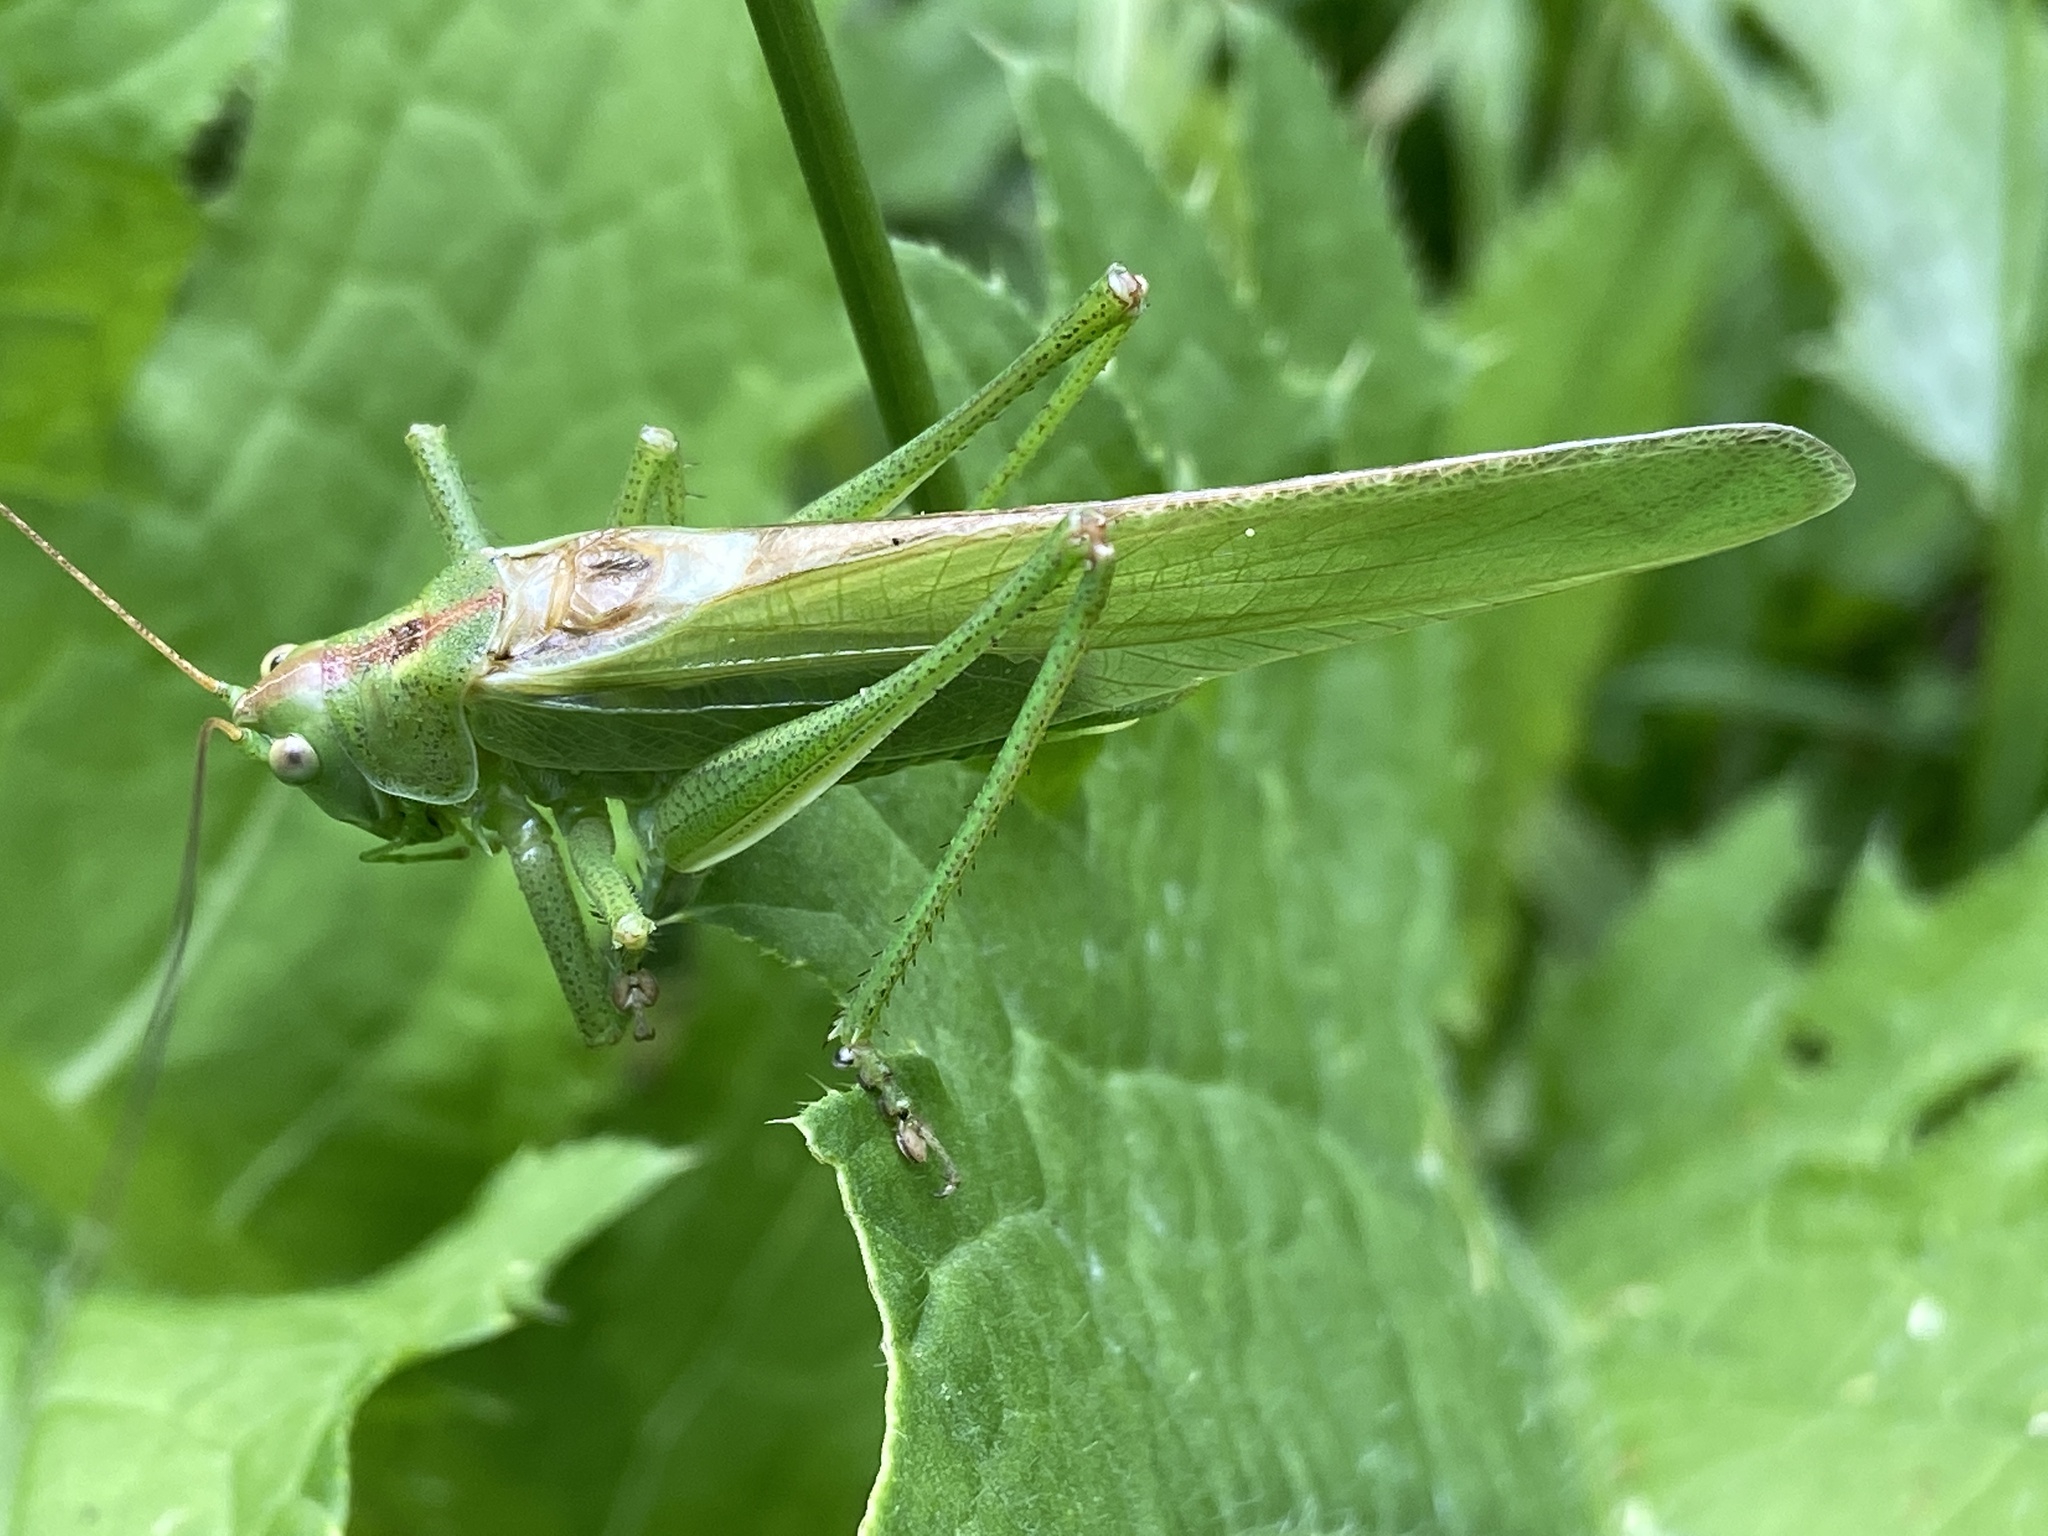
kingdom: Animalia
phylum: Arthropoda
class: Insecta
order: Orthoptera
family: Tettigoniidae
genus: Tettigonia
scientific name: Tettigonia viridissima
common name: Great green bush-cricket
